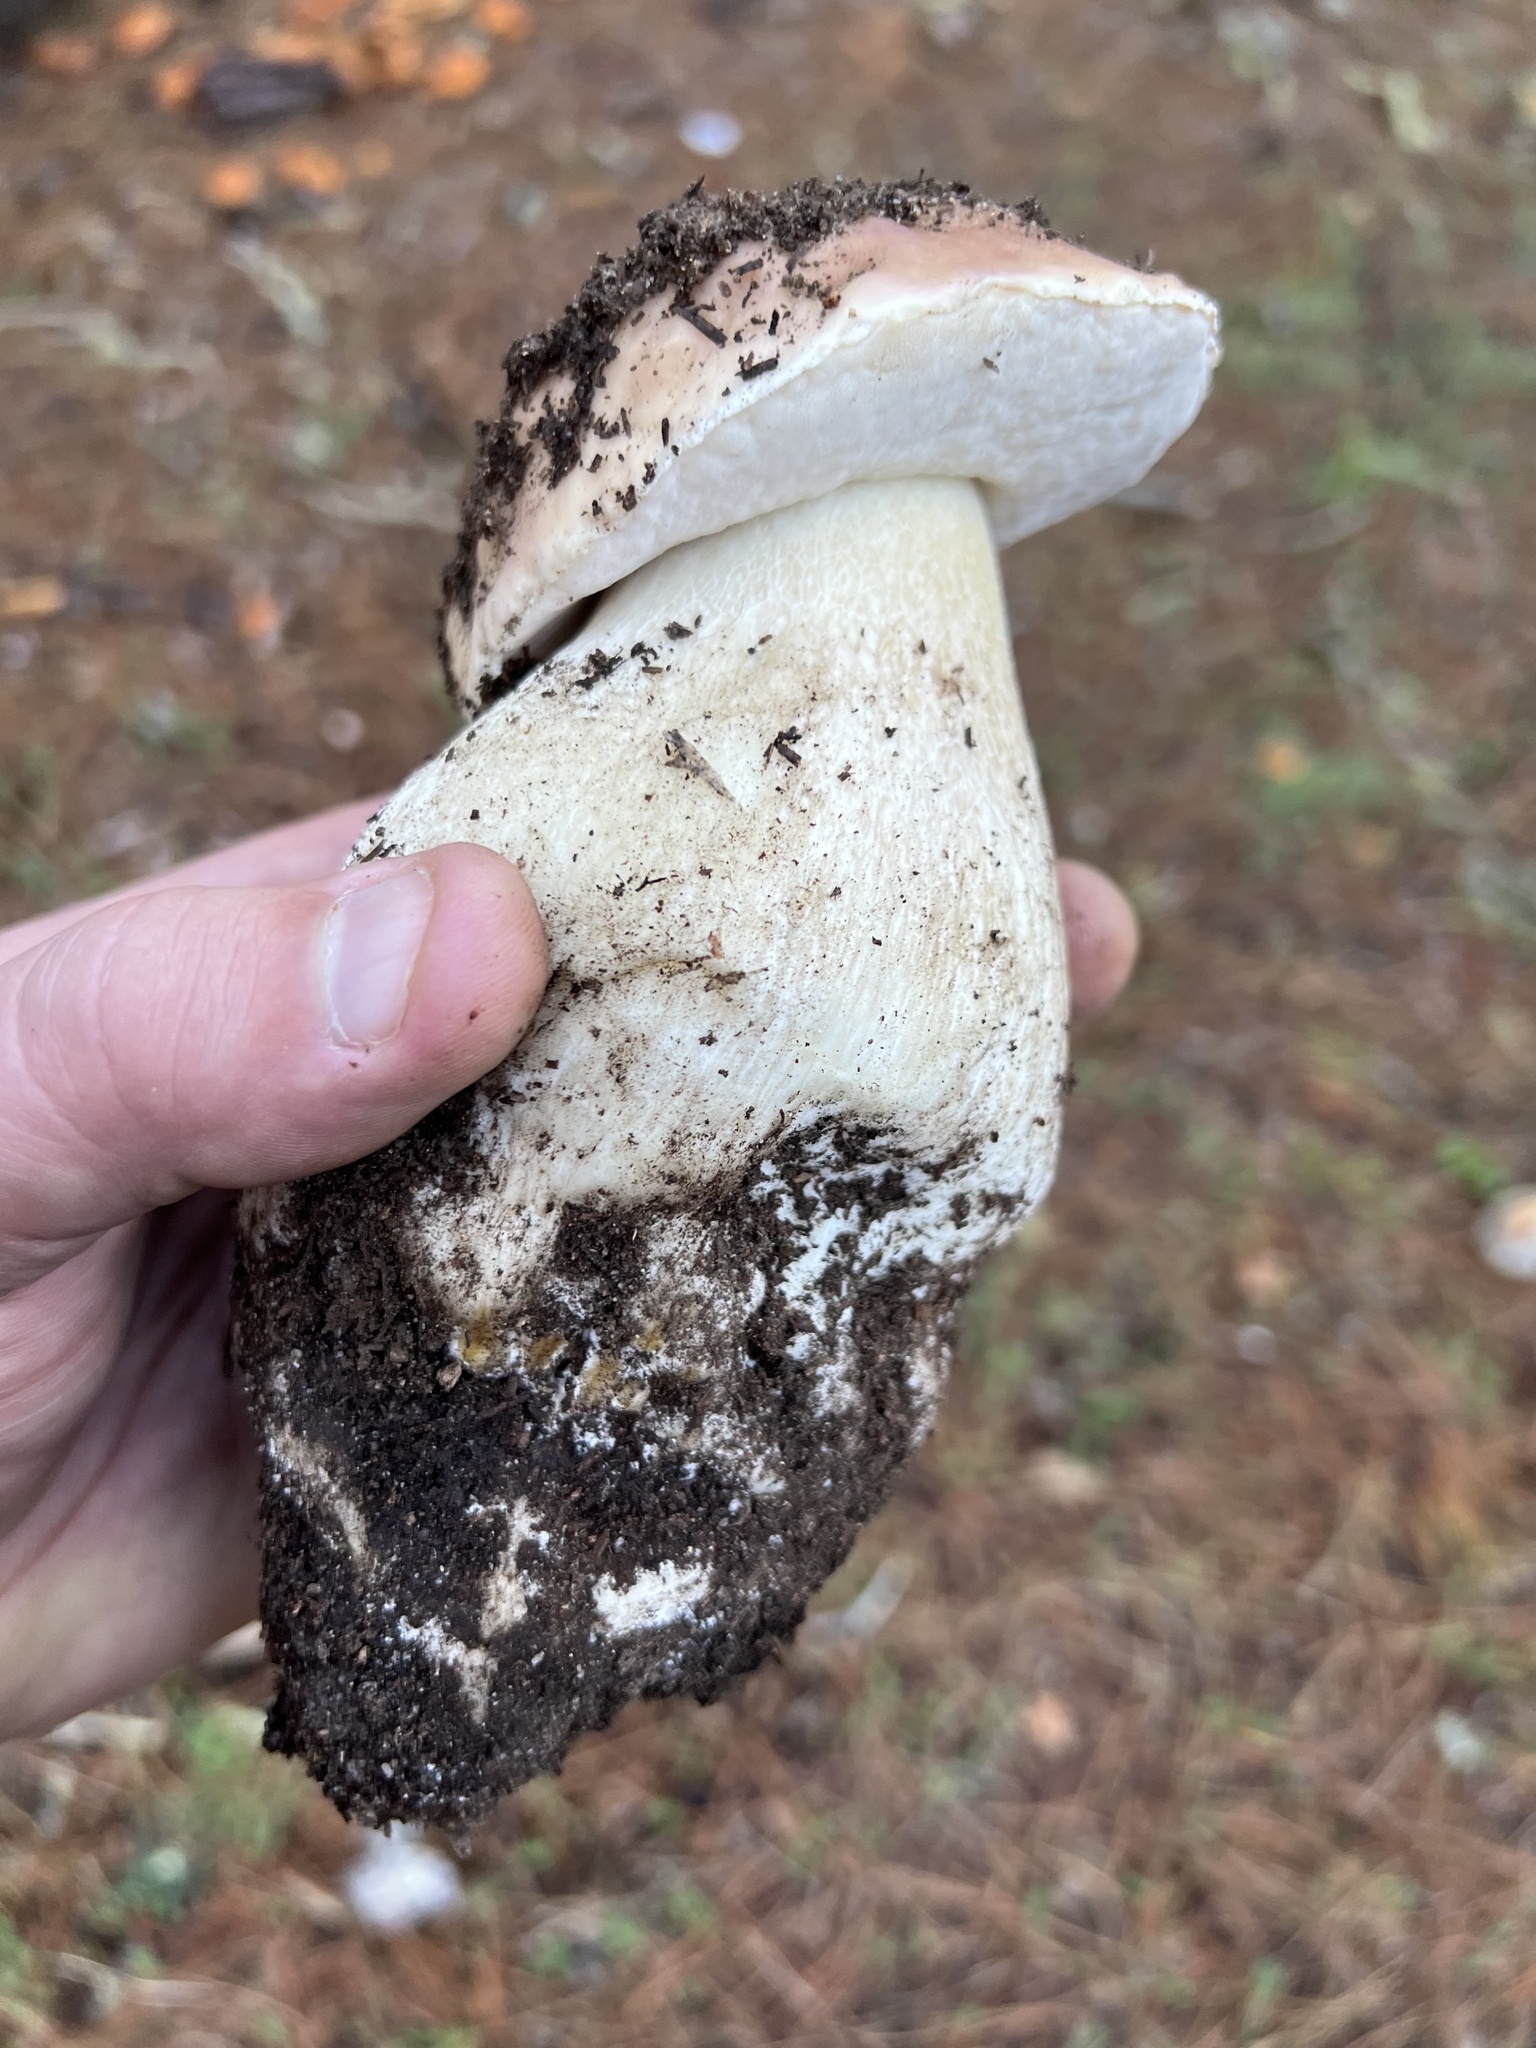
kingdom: Fungi
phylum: Basidiomycota
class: Agaricomycetes
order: Boletales
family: Boletaceae
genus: Boletus
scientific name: Boletus edulis
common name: Cep
